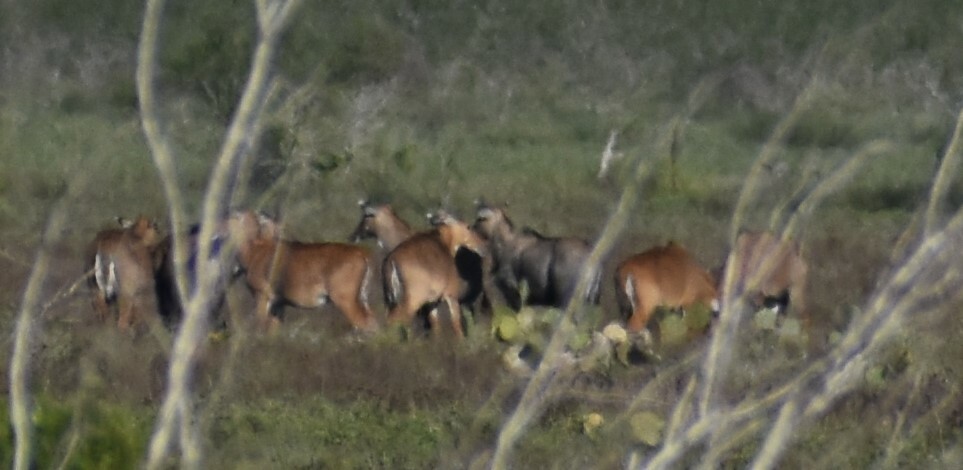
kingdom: Animalia
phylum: Chordata
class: Mammalia
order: Artiodactyla
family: Bovidae
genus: Boselaphus
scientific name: Boselaphus tragocamelus
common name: Nilgai
